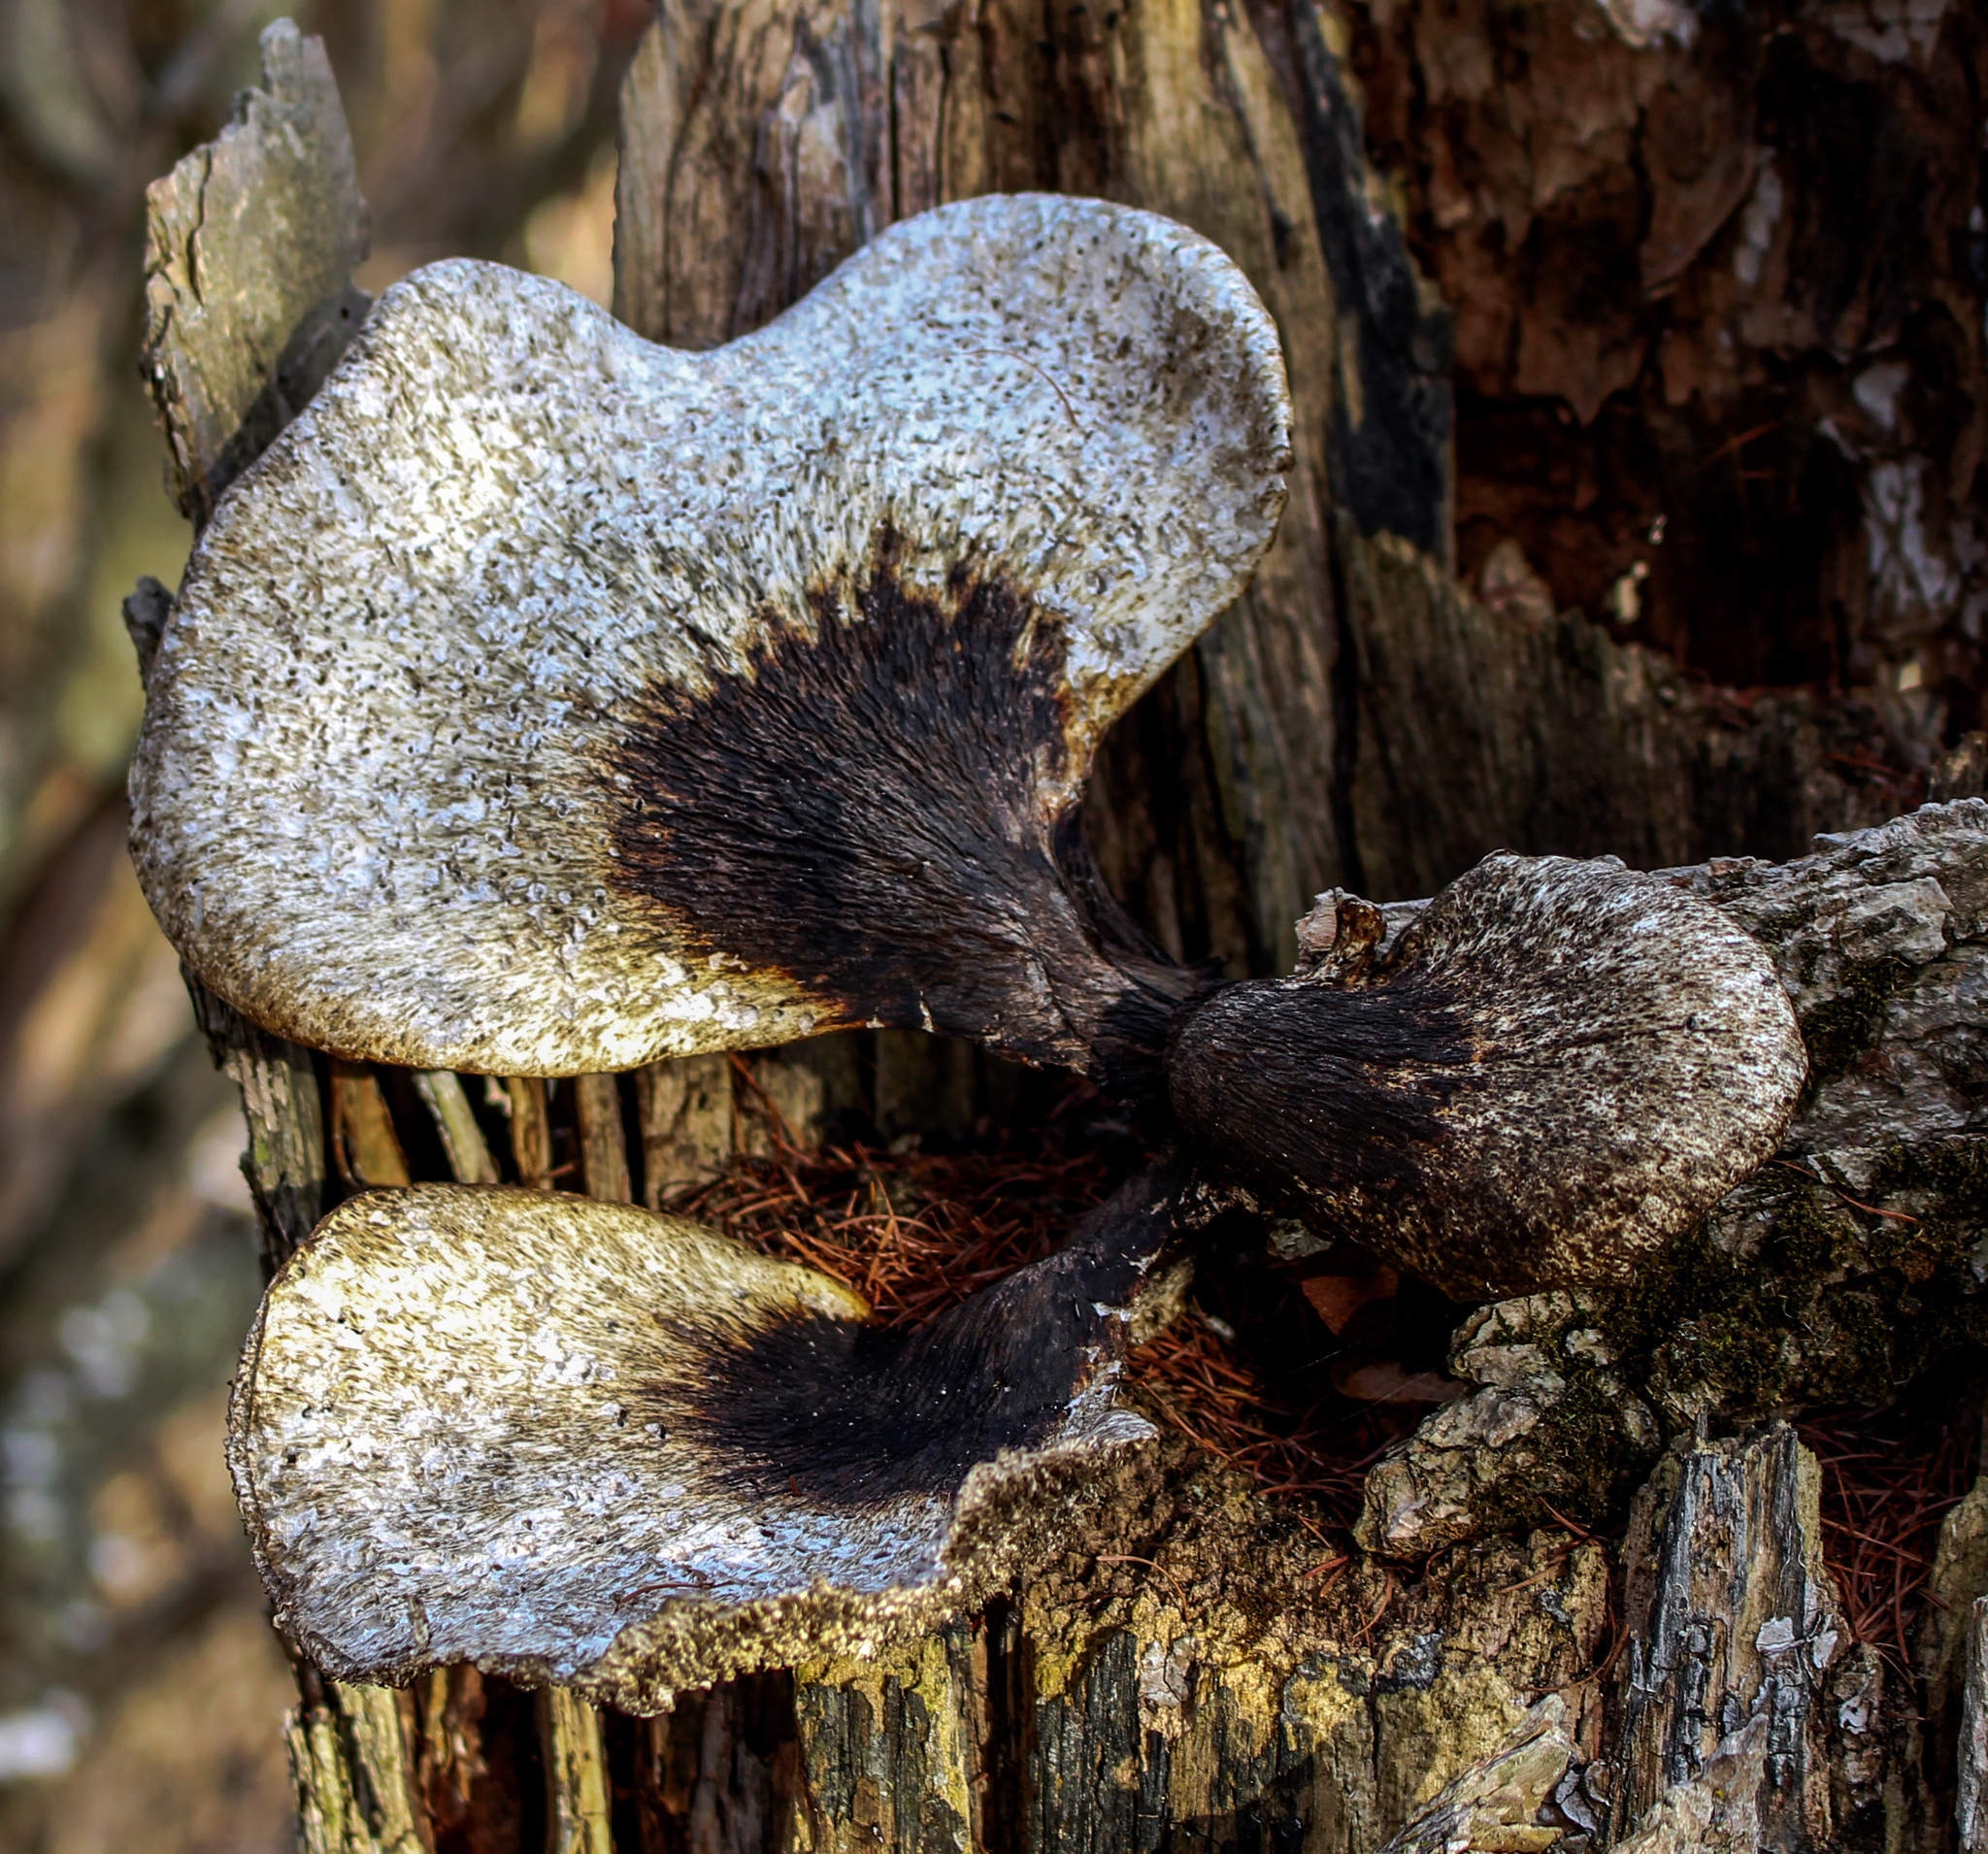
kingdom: Fungi
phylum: Basidiomycota
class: Agaricomycetes
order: Polyporales
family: Polyporaceae
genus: Cerioporus
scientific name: Cerioporus squamosus
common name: Dryad's saddle
